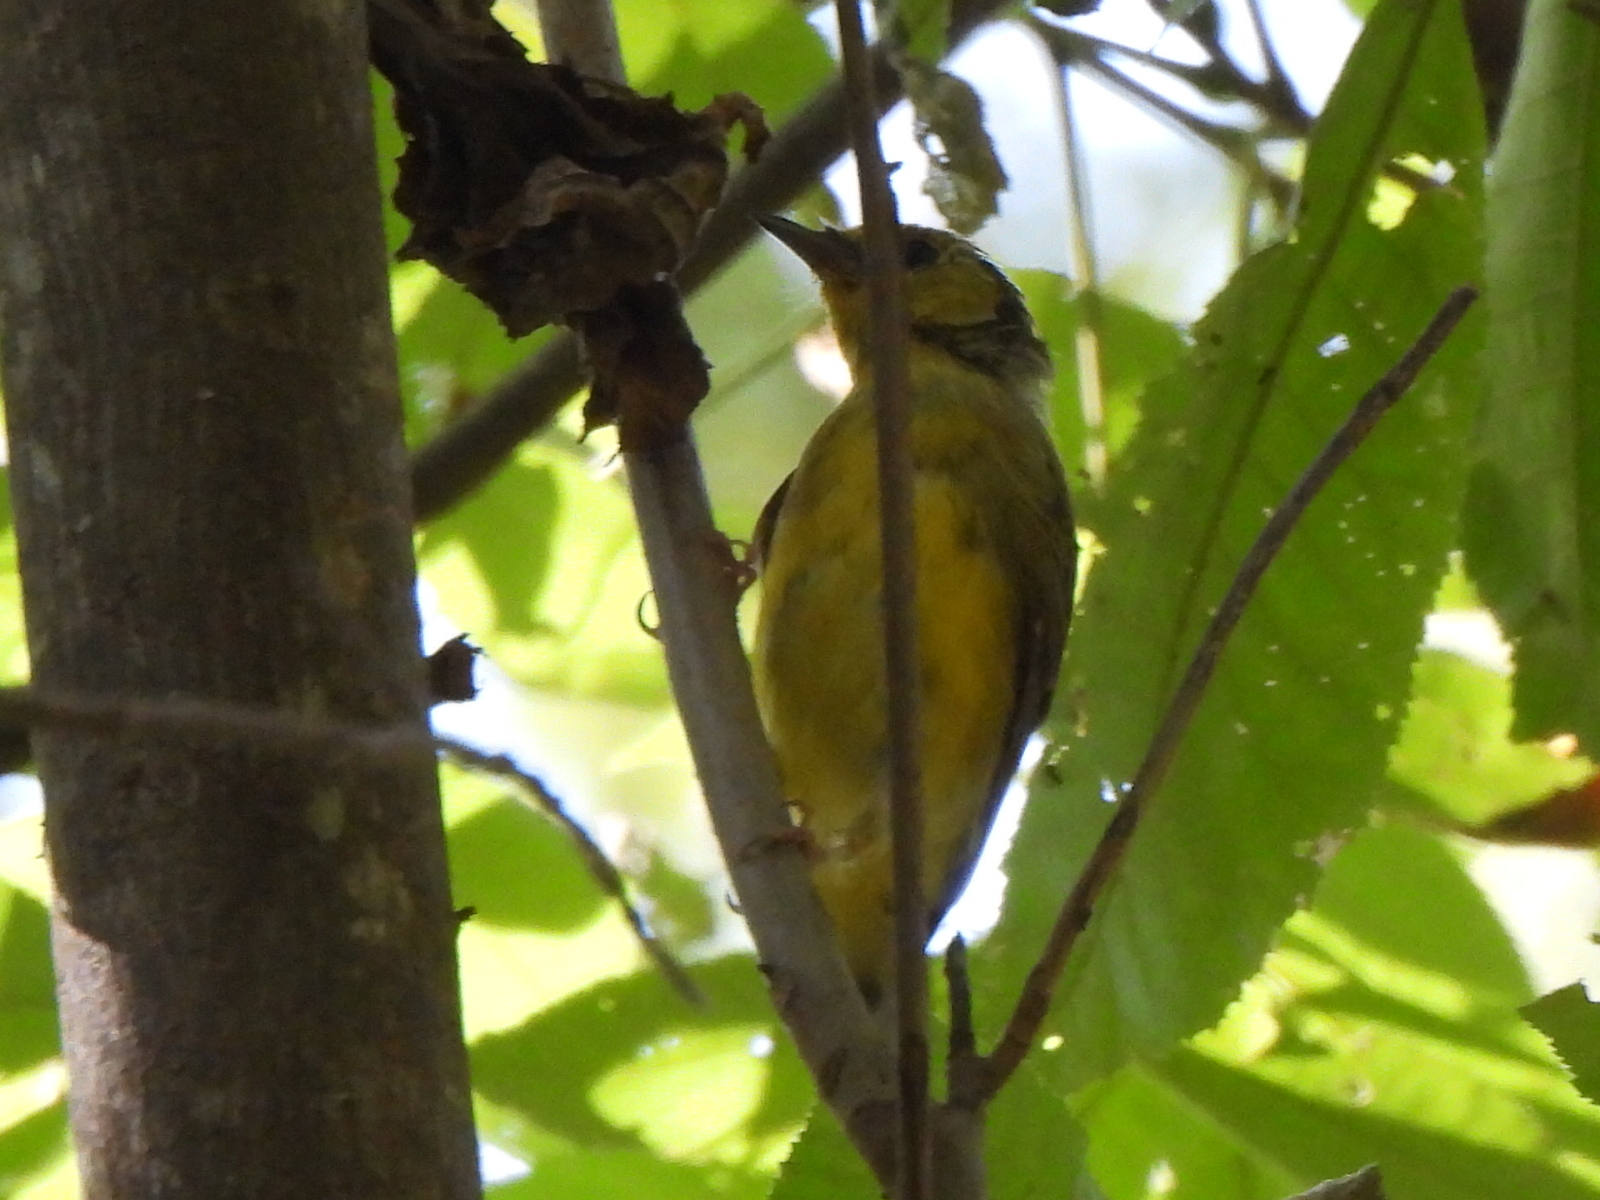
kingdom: Animalia
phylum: Chordata
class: Aves
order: Passeriformes
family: Parulidae
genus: Setophaga
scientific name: Setophaga citrina
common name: Hooded warbler
